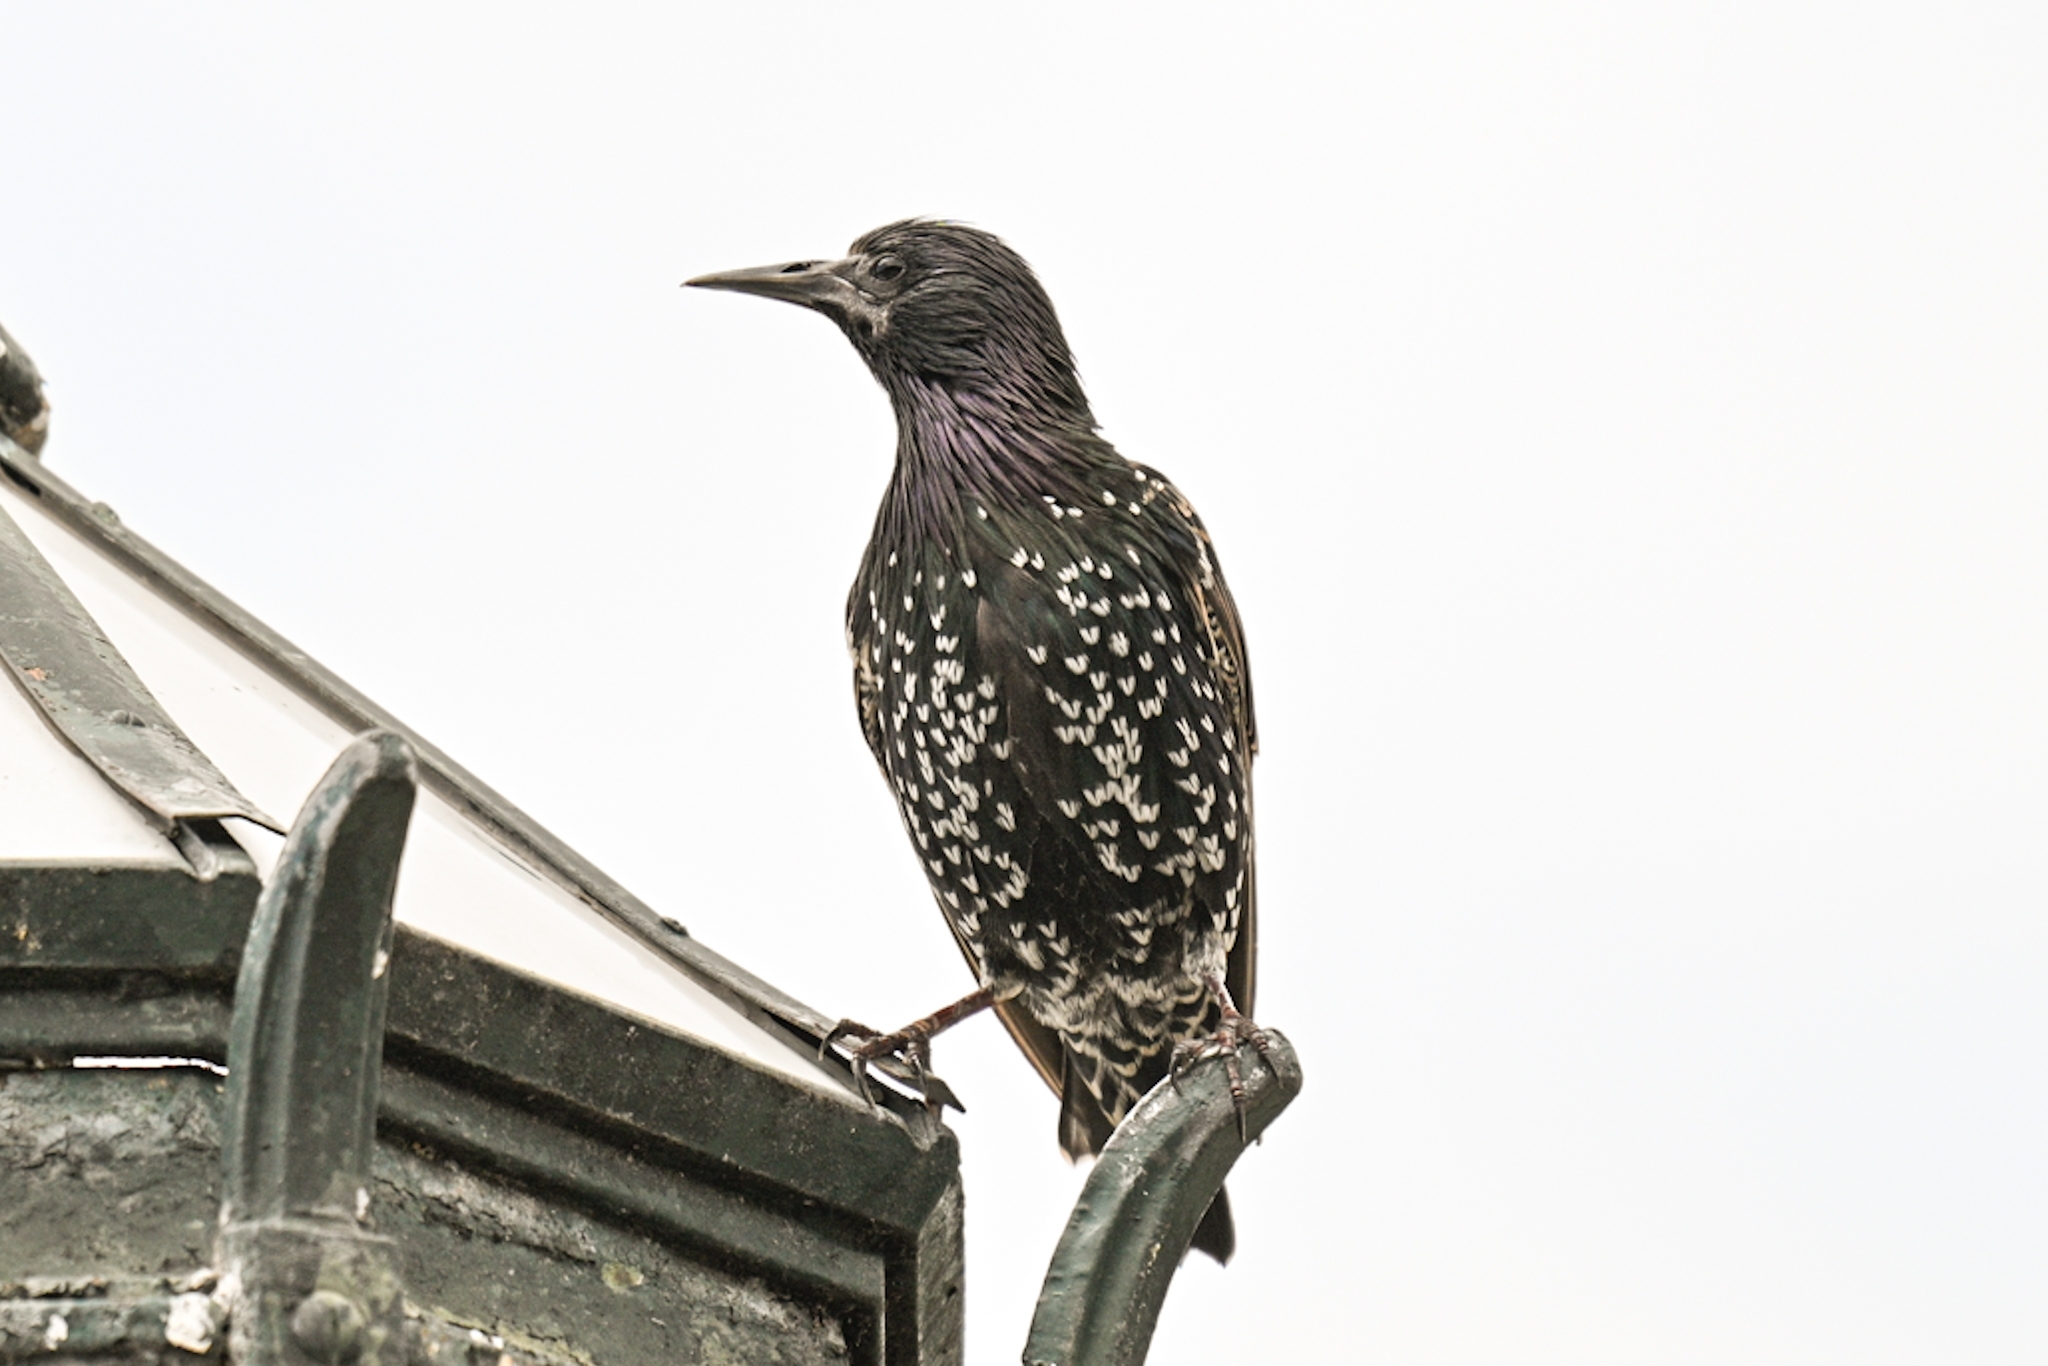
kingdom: Animalia
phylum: Chordata
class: Aves
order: Passeriformes
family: Sturnidae
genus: Sturnus
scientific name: Sturnus vulgaris
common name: Common starling
